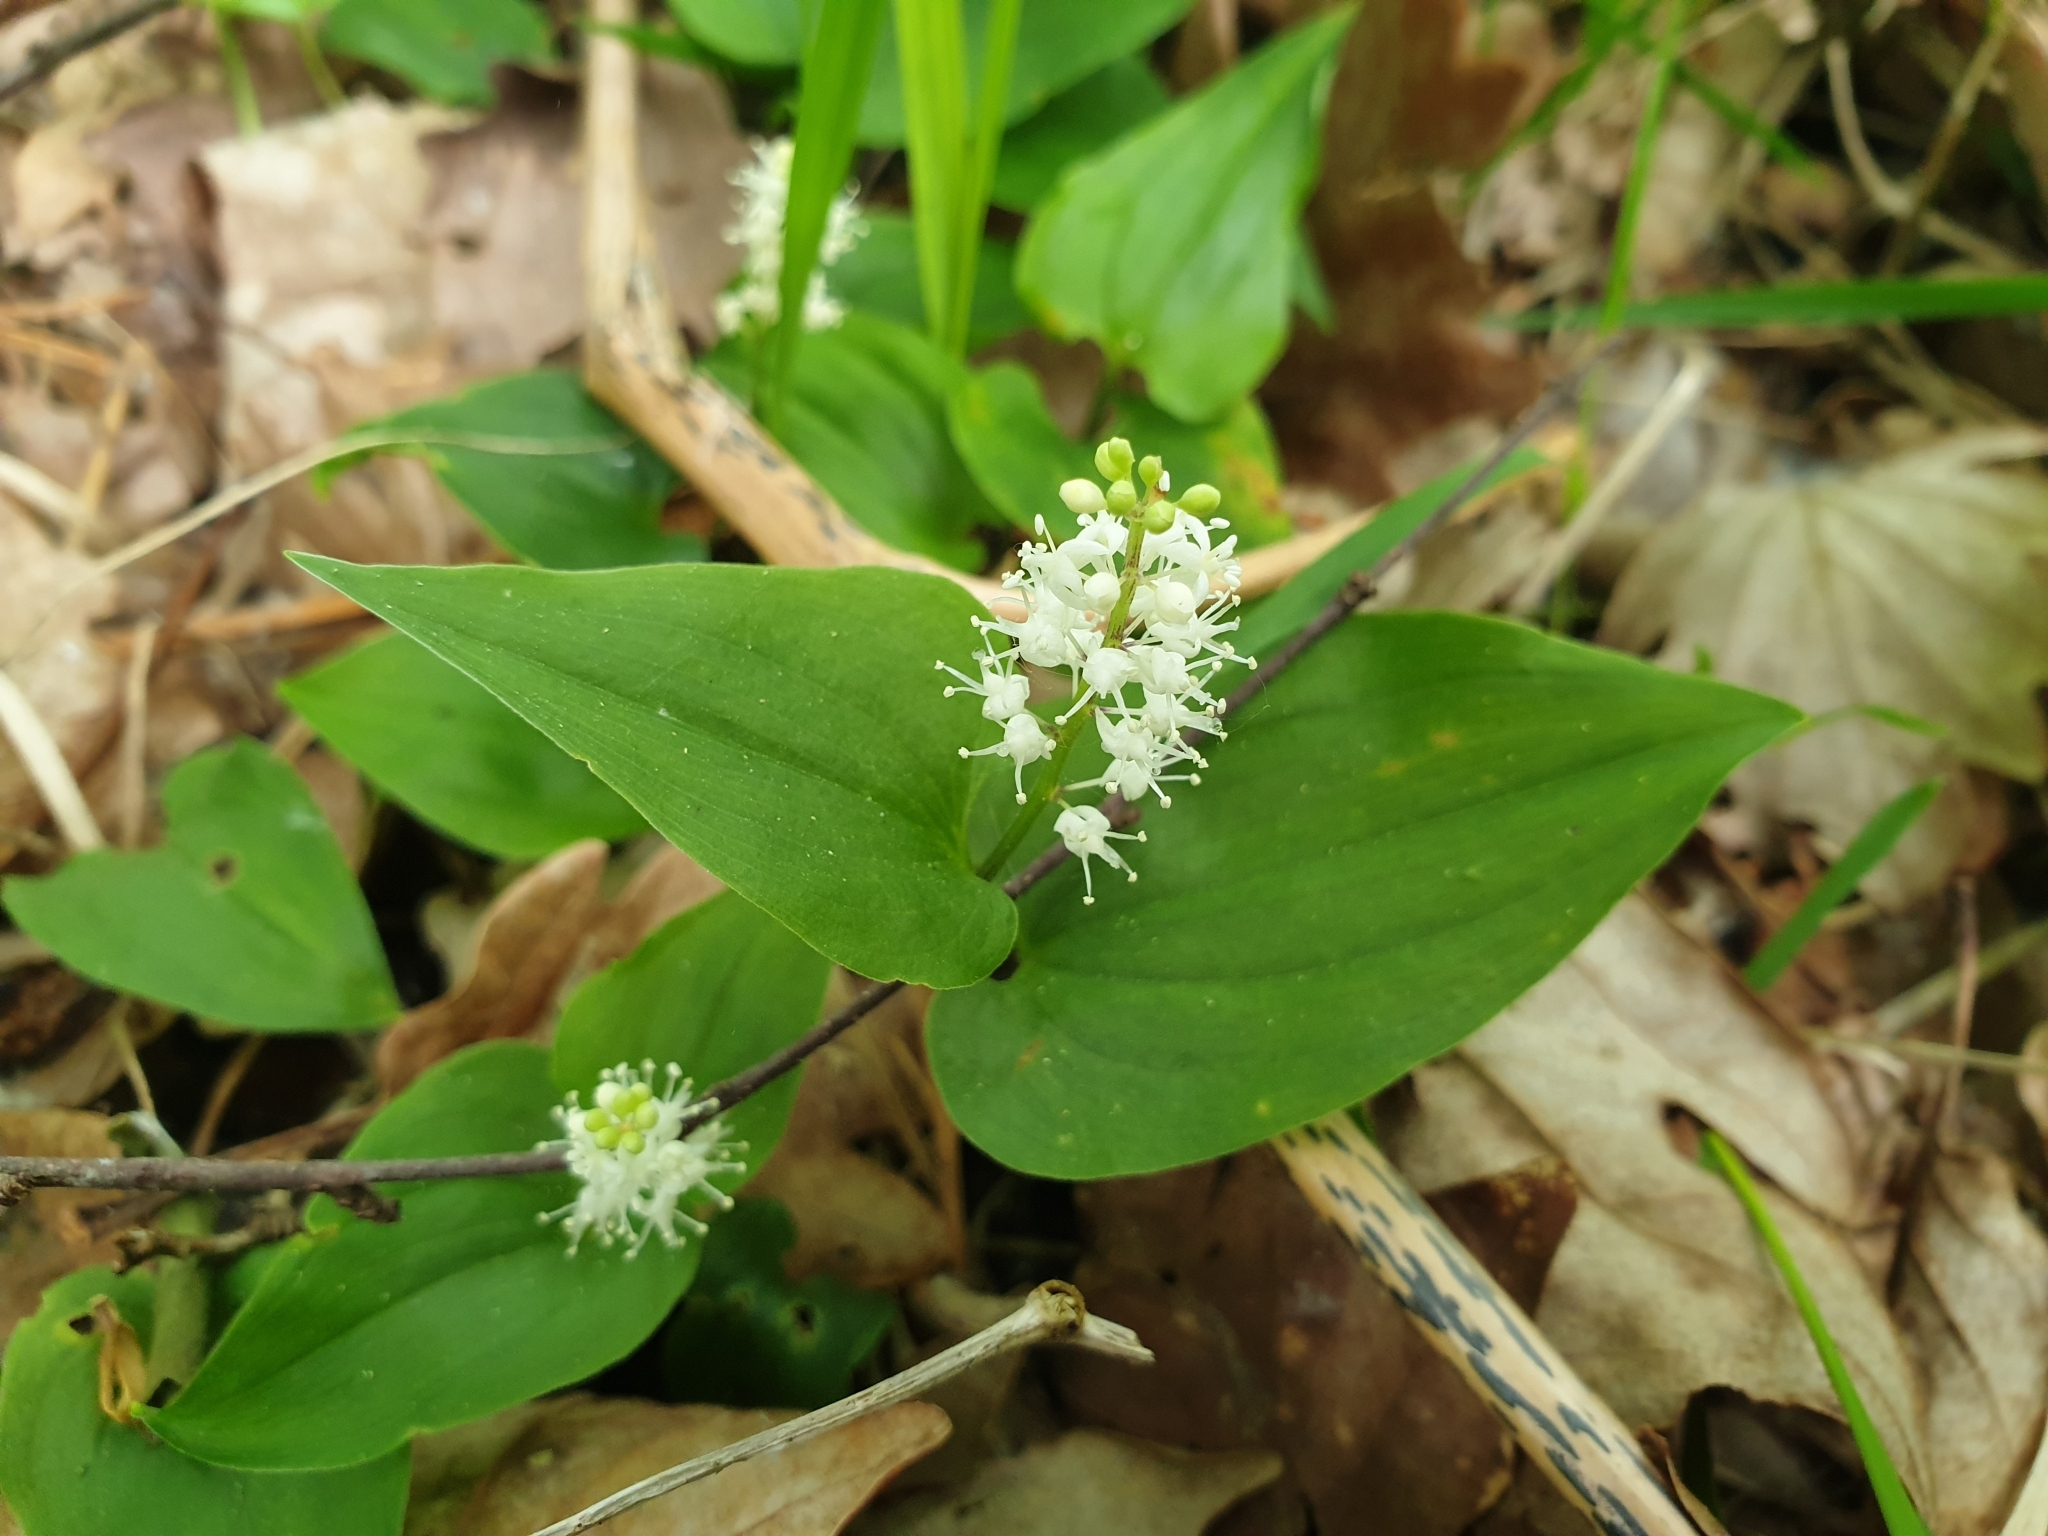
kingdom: Plantae
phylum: Tracheophyta
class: Liliopsida
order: Asparagales
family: Asparagaceae
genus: Maianthemum
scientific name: Maianthemum bifolium
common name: May lily
